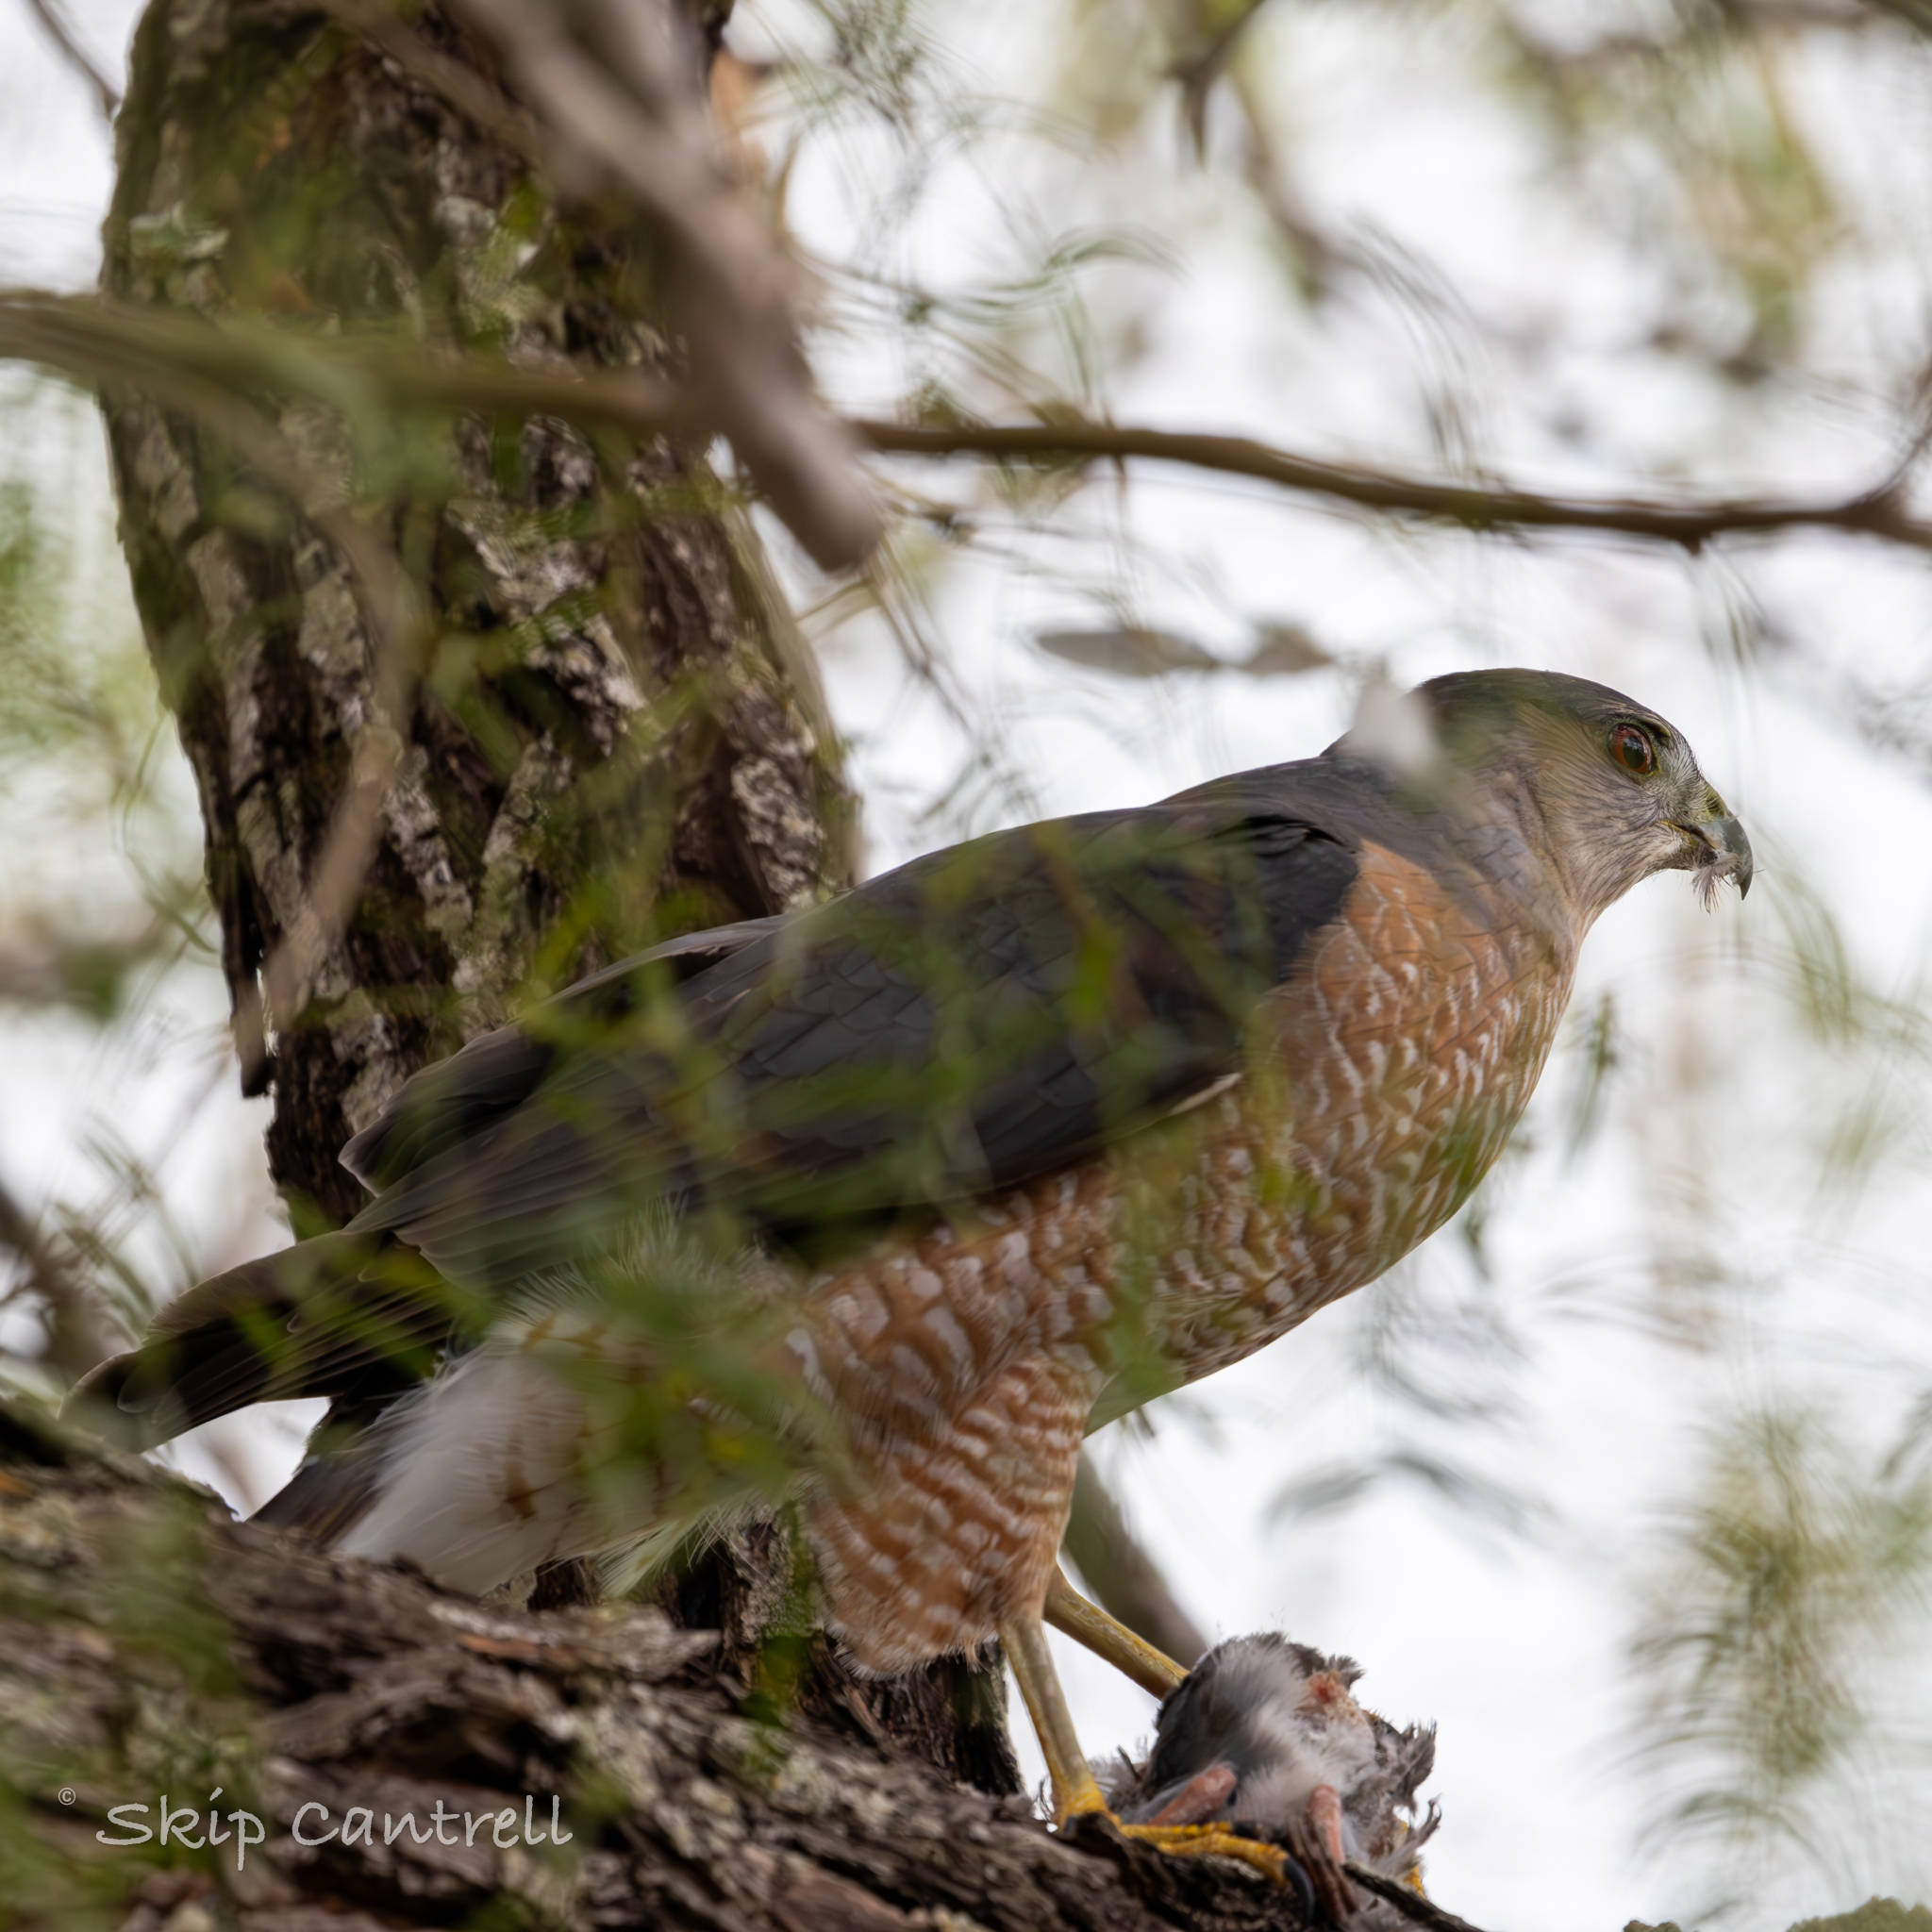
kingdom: Animalia
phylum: Chordata
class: Aves
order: Accipitriformes
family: Accipitridae
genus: Accipiter
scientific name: Accipiter cooperii
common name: Cooper's hawk
